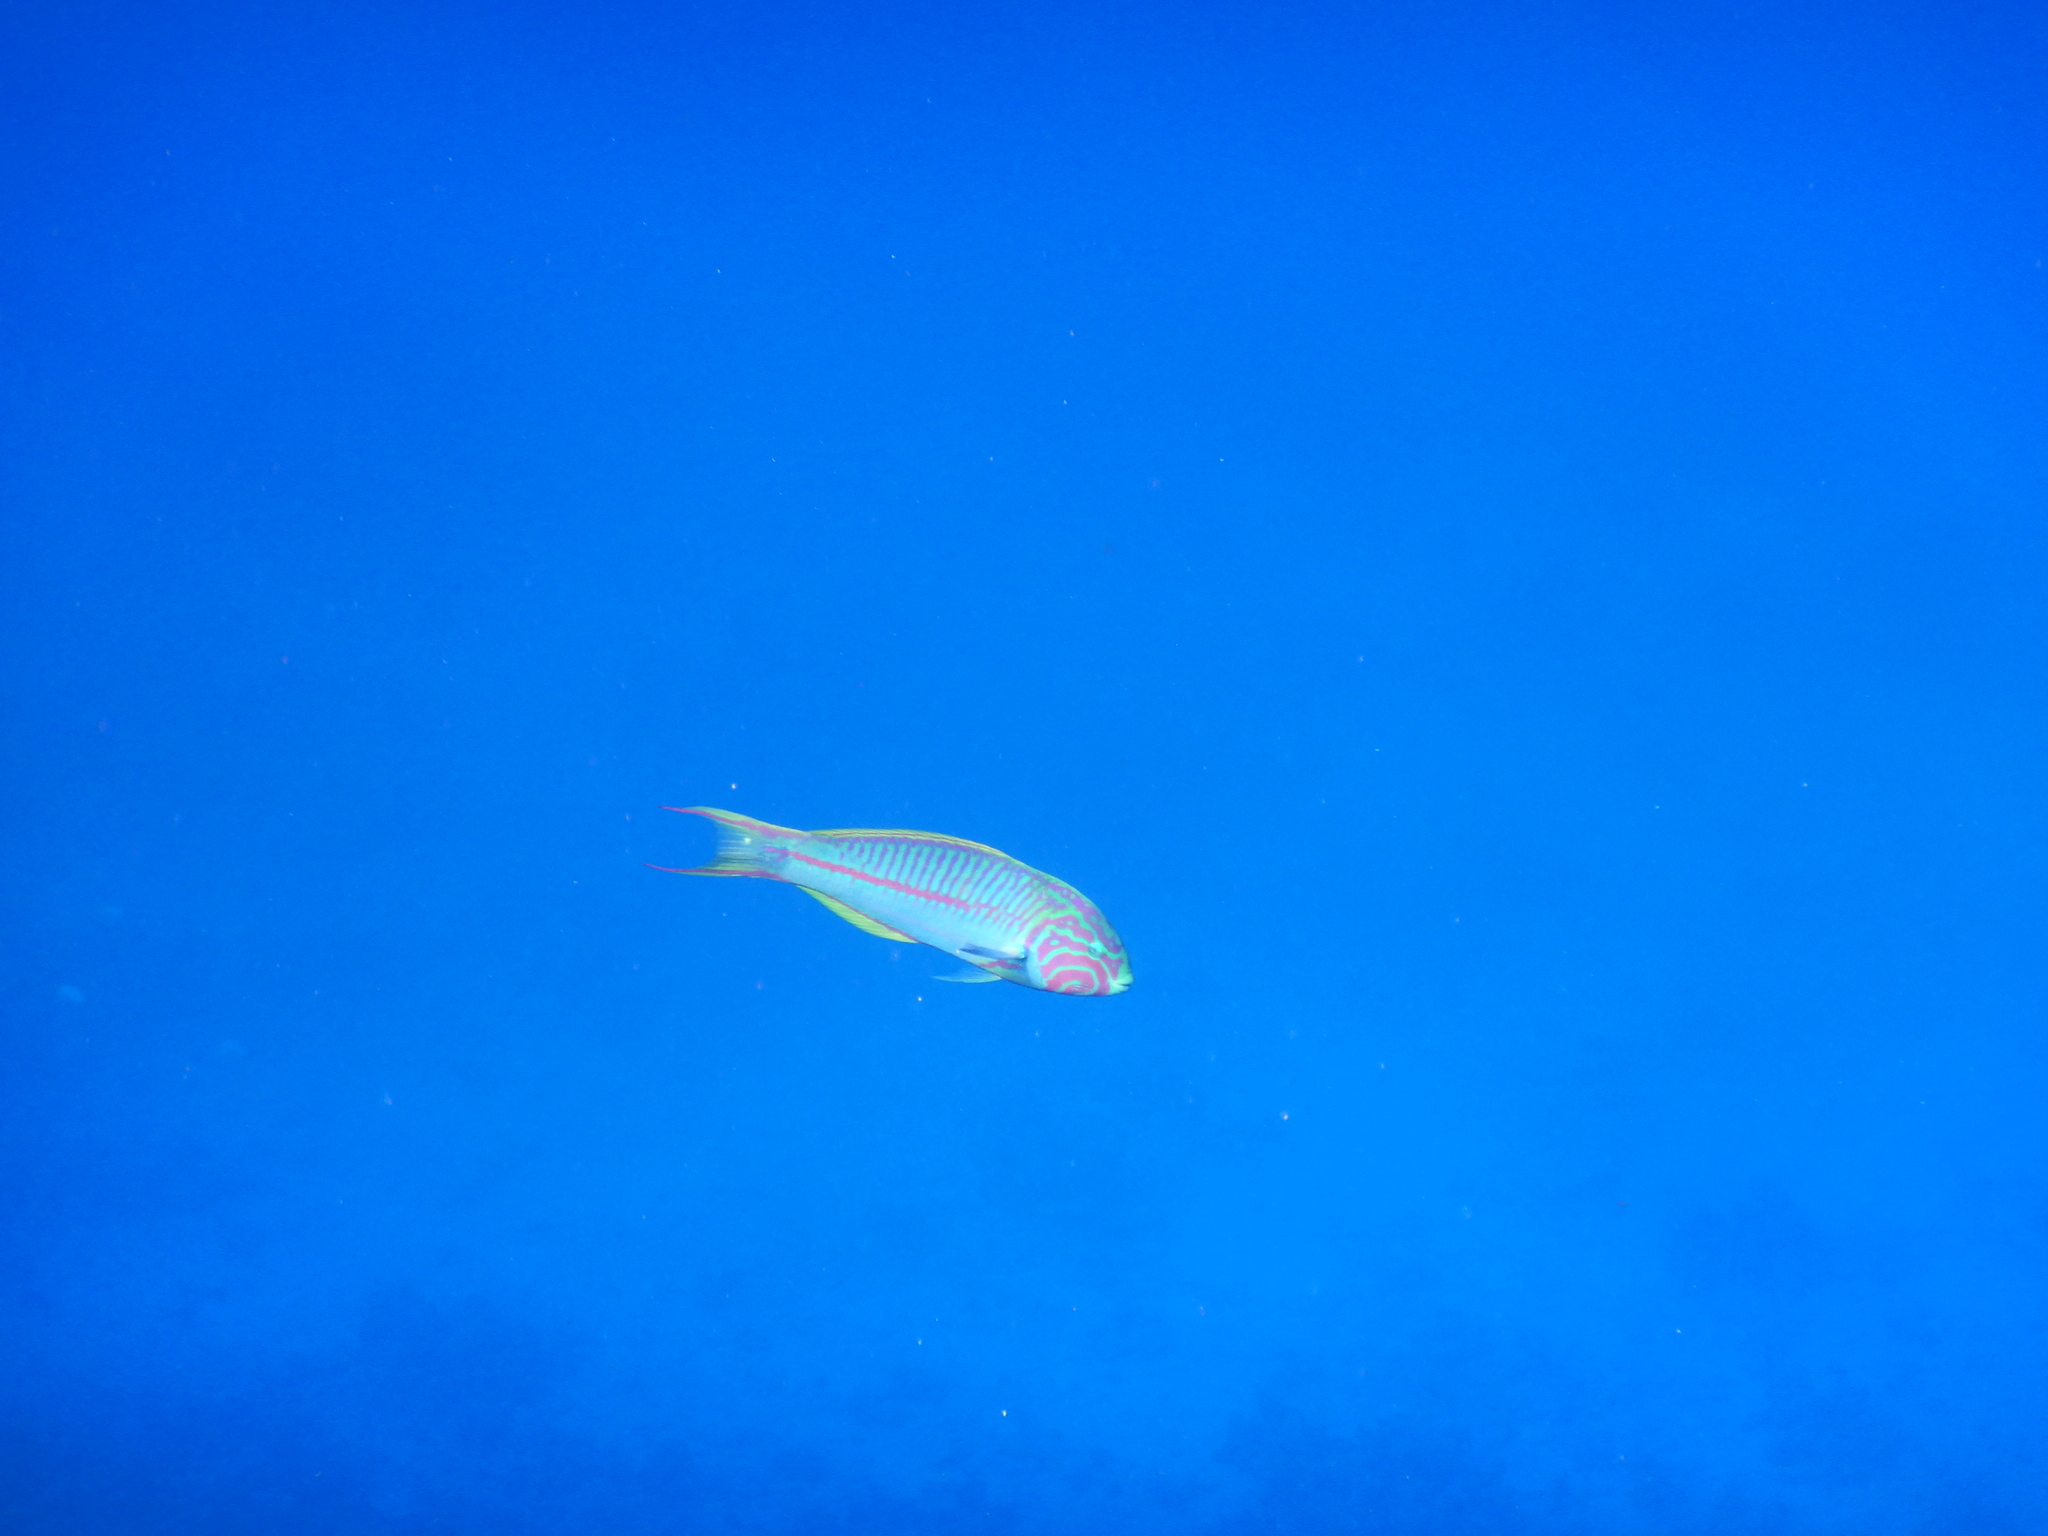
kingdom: Animalia
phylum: Chordata
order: Perciformes
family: Labridae
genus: Thalassoma
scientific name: Thalassoma rueppellii
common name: Klunzinger's wrasse
